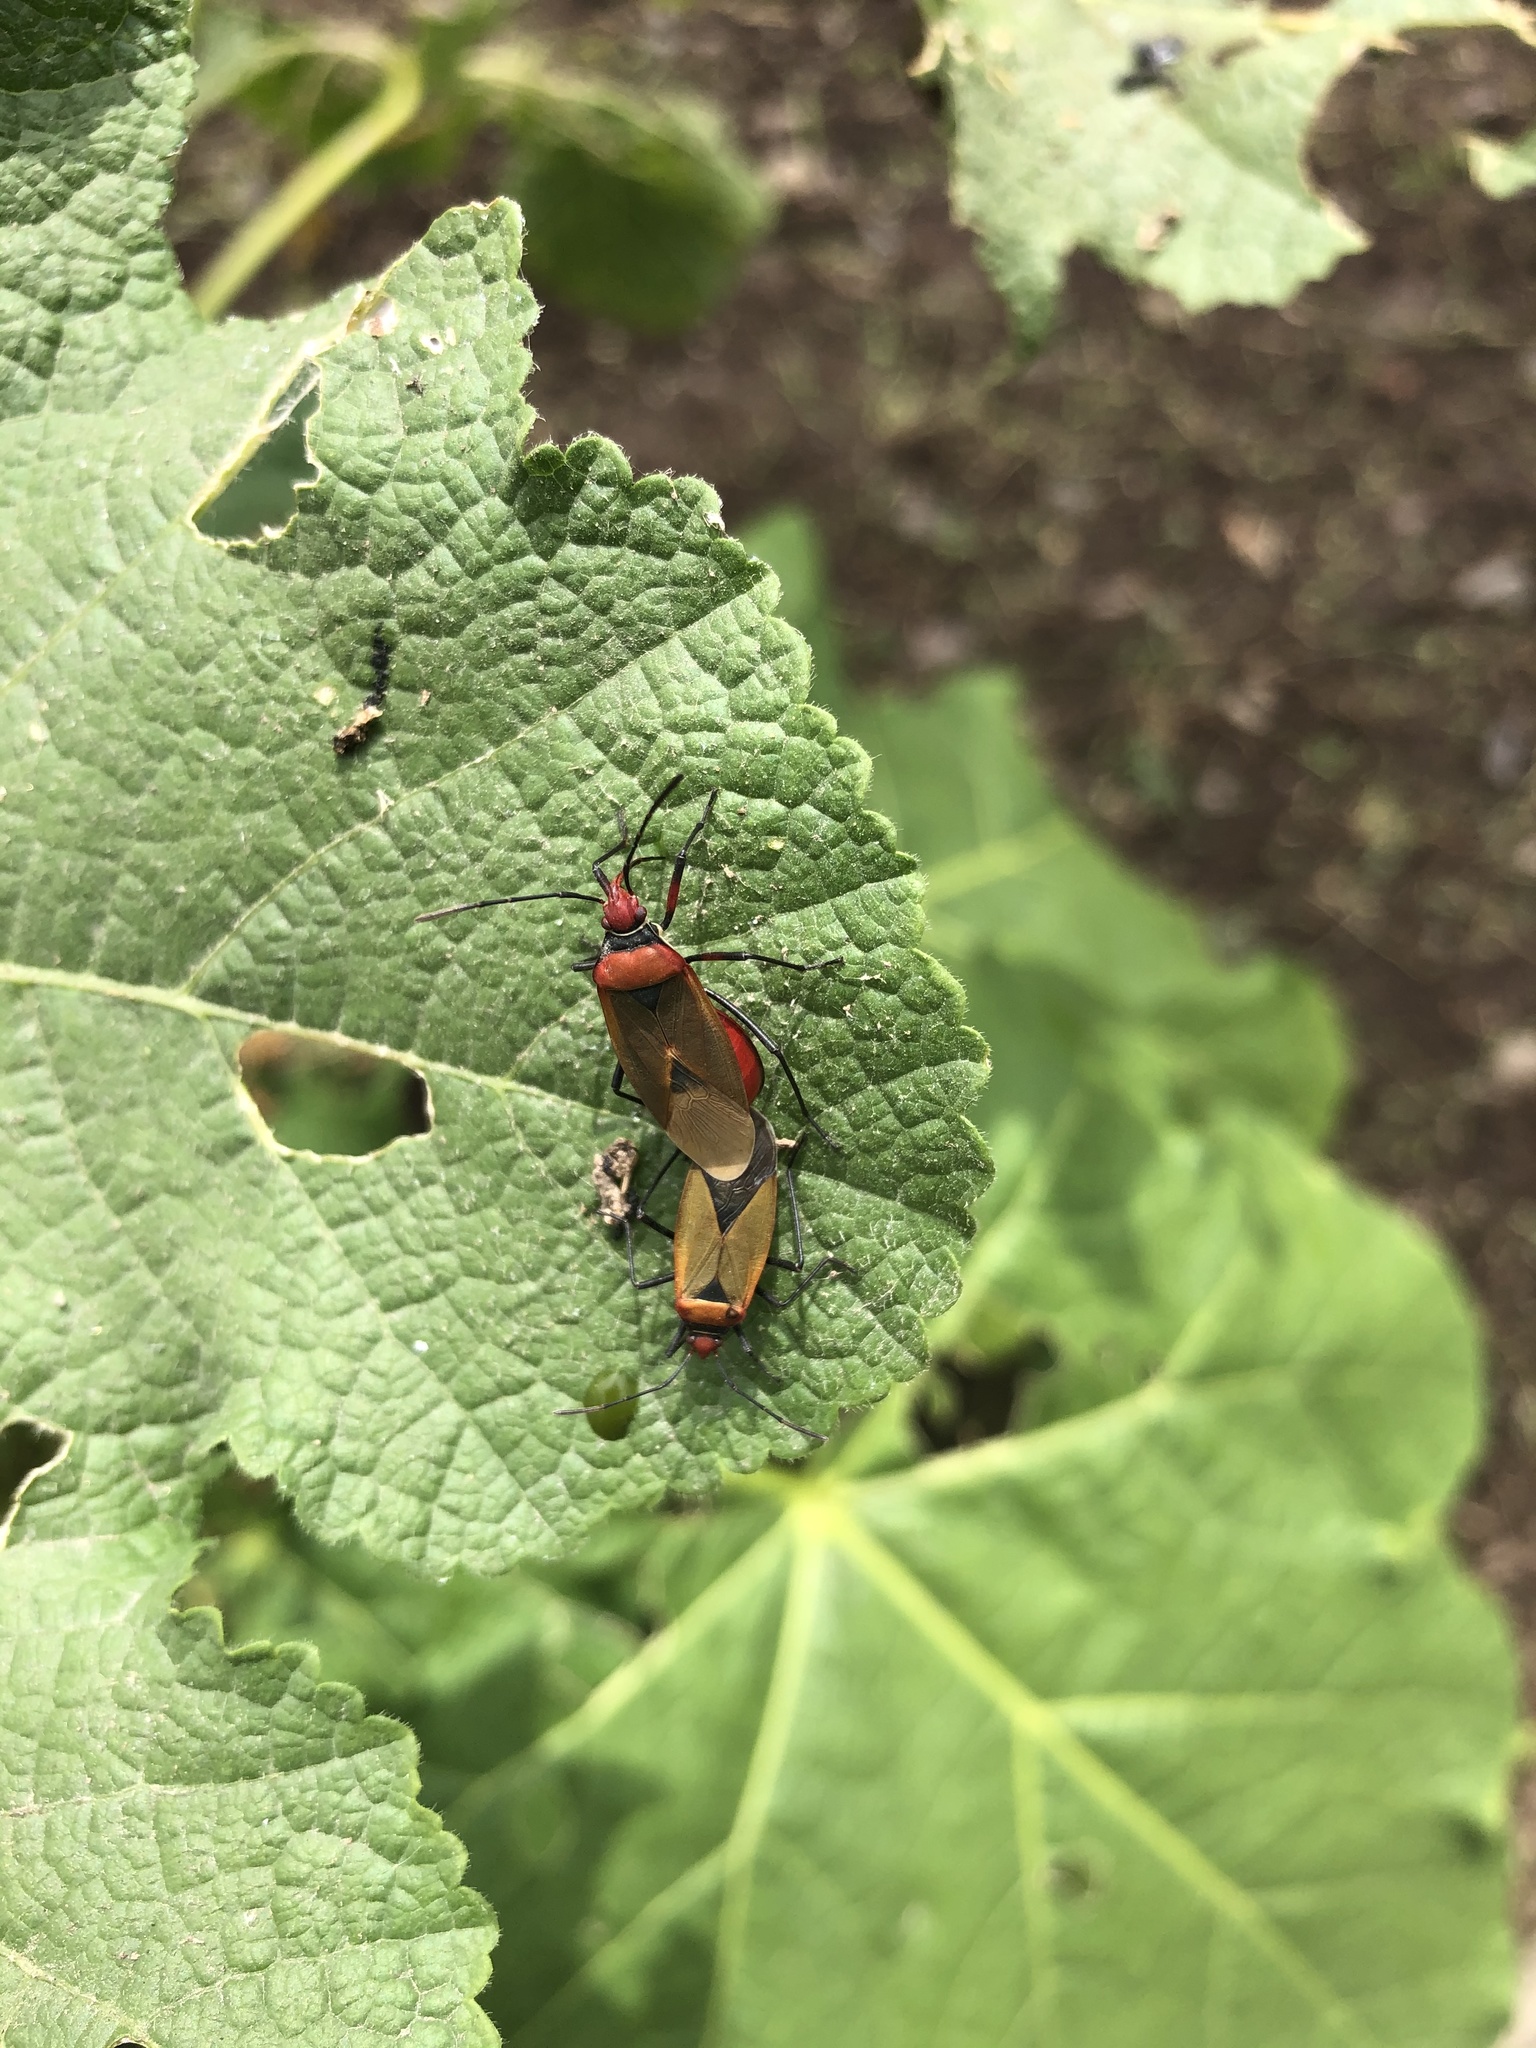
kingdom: Animalia
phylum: Arthropoda
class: Insecta
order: Hemiptera
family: Pyrrhocoridae
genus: Dysdercus
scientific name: Dysdercus peruvianus
